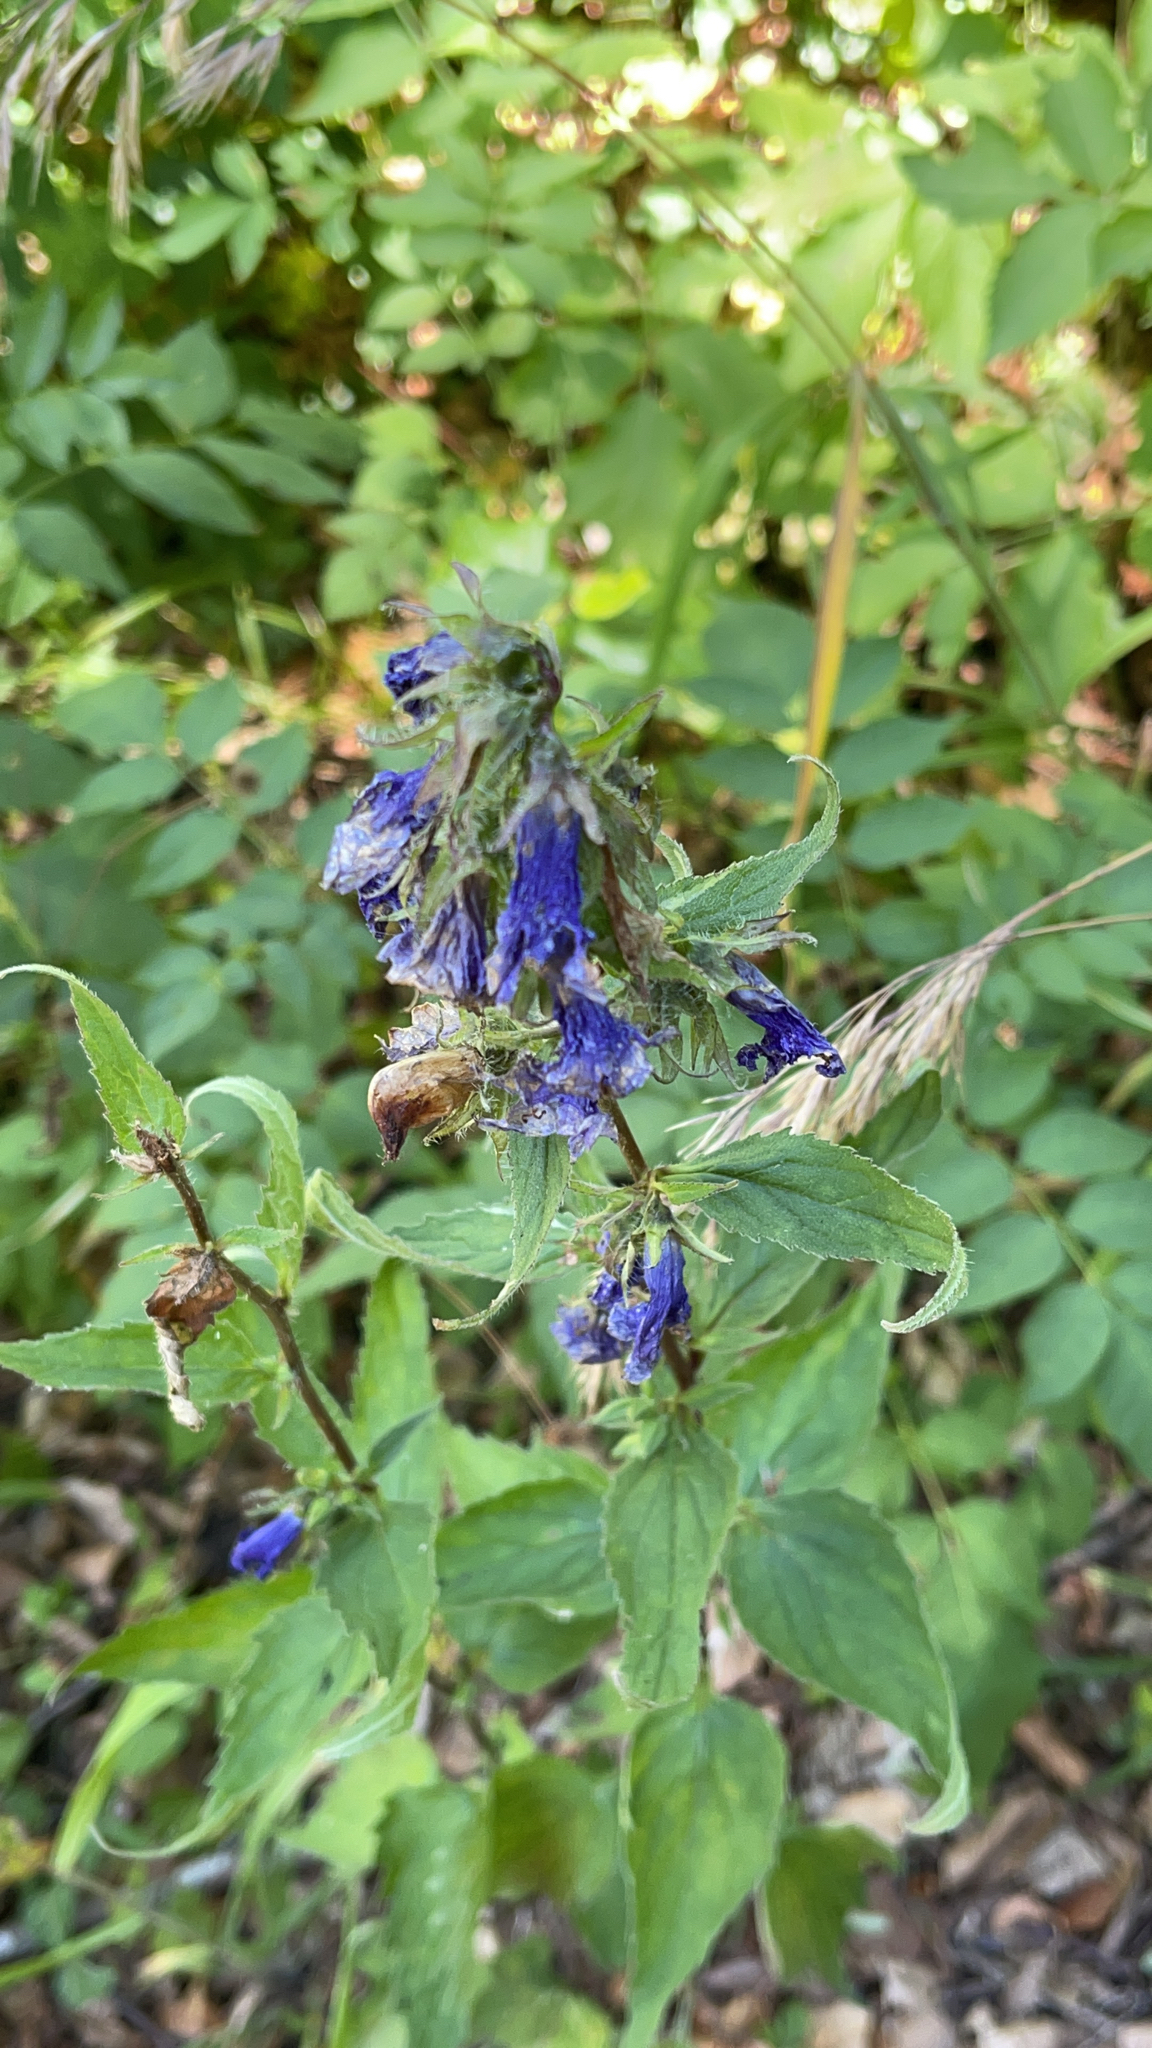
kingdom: Plantae
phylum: Tracheophyta
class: Magnoliopsida
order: Asterales
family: Campanulaceae
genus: Campanula
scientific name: Campanula trachelium
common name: Nettle-leaved bellflower
